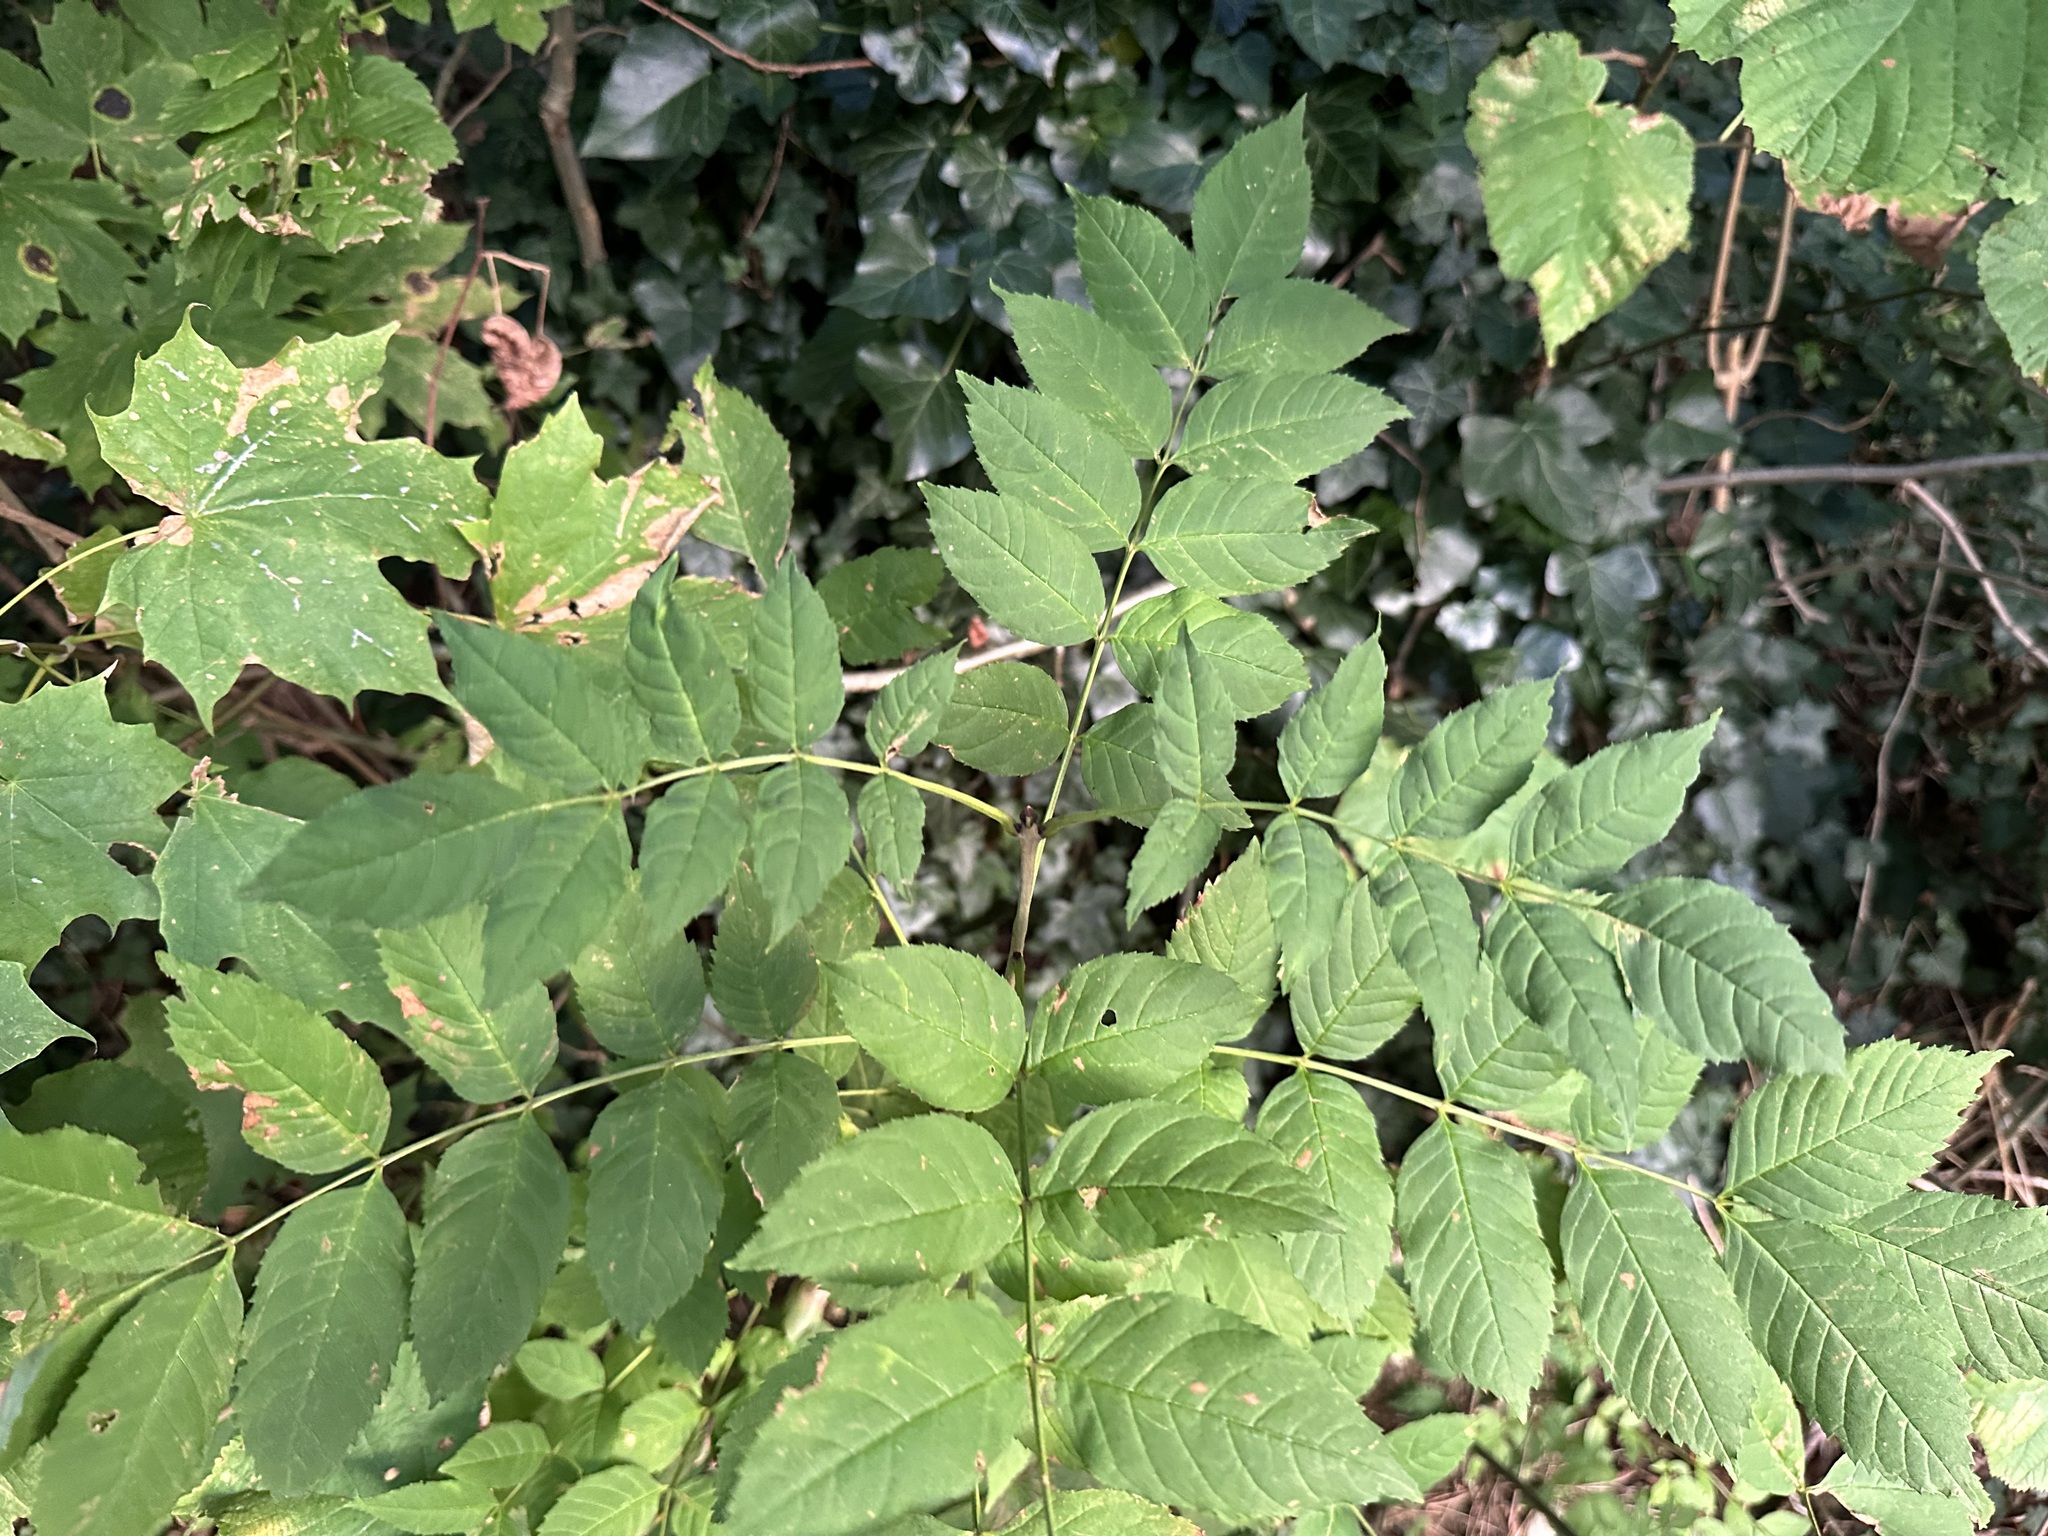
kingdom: Plantae
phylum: Tracheophyta
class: Magnoliopsida
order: Lamiales
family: Oleaceae
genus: Fraxinus
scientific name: Fraxinus excelsior
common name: European ash
